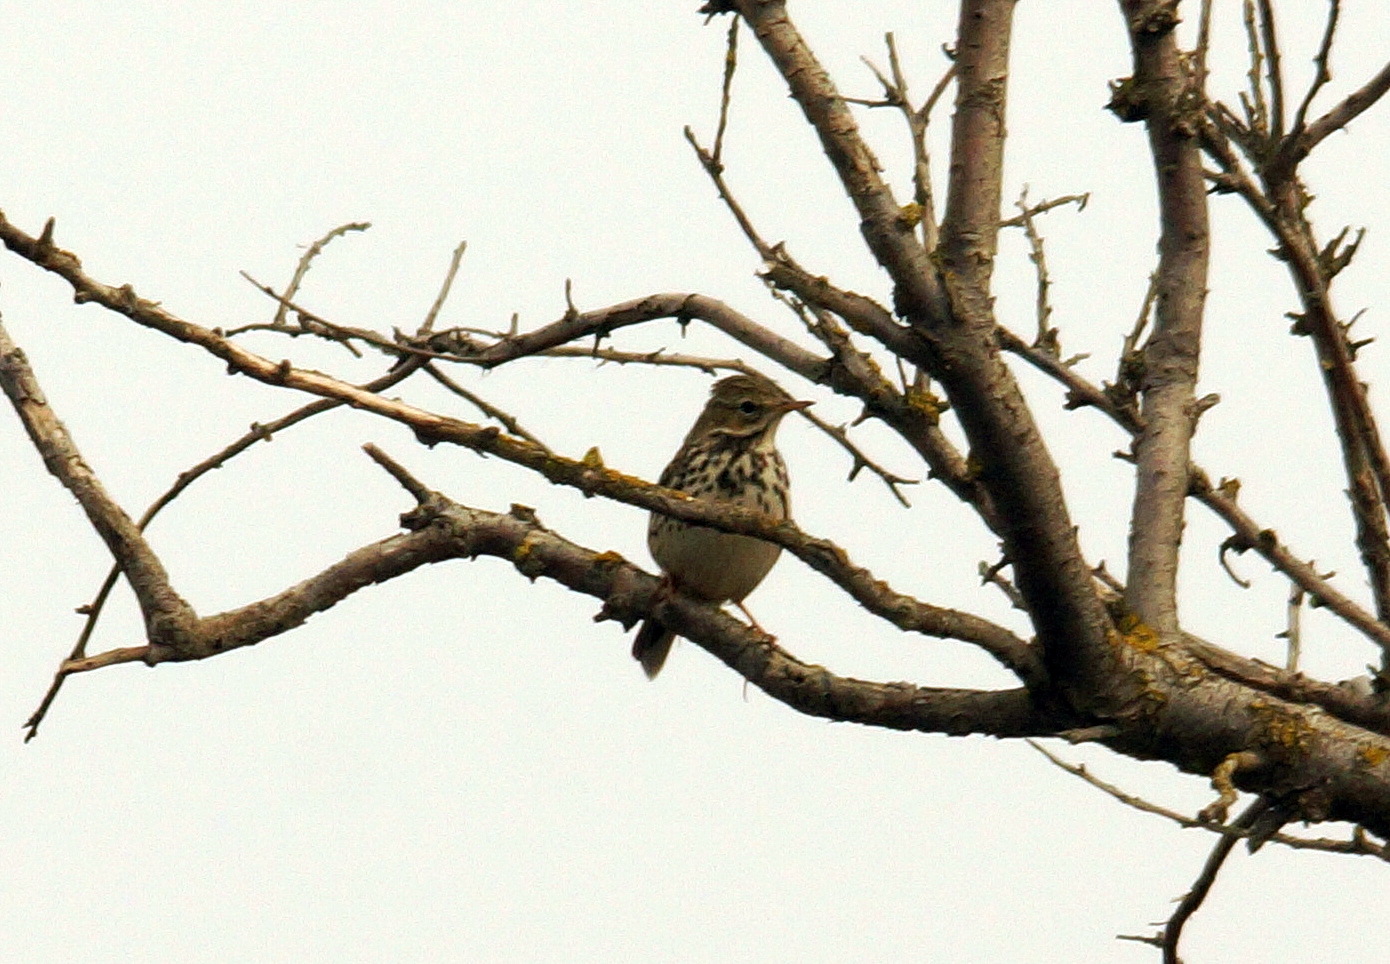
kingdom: Animalia
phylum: Chordata
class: Aves
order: Passeriformes
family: Motacillidae
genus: Anthus
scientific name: Anthus pratensis
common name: Meadow pipit
